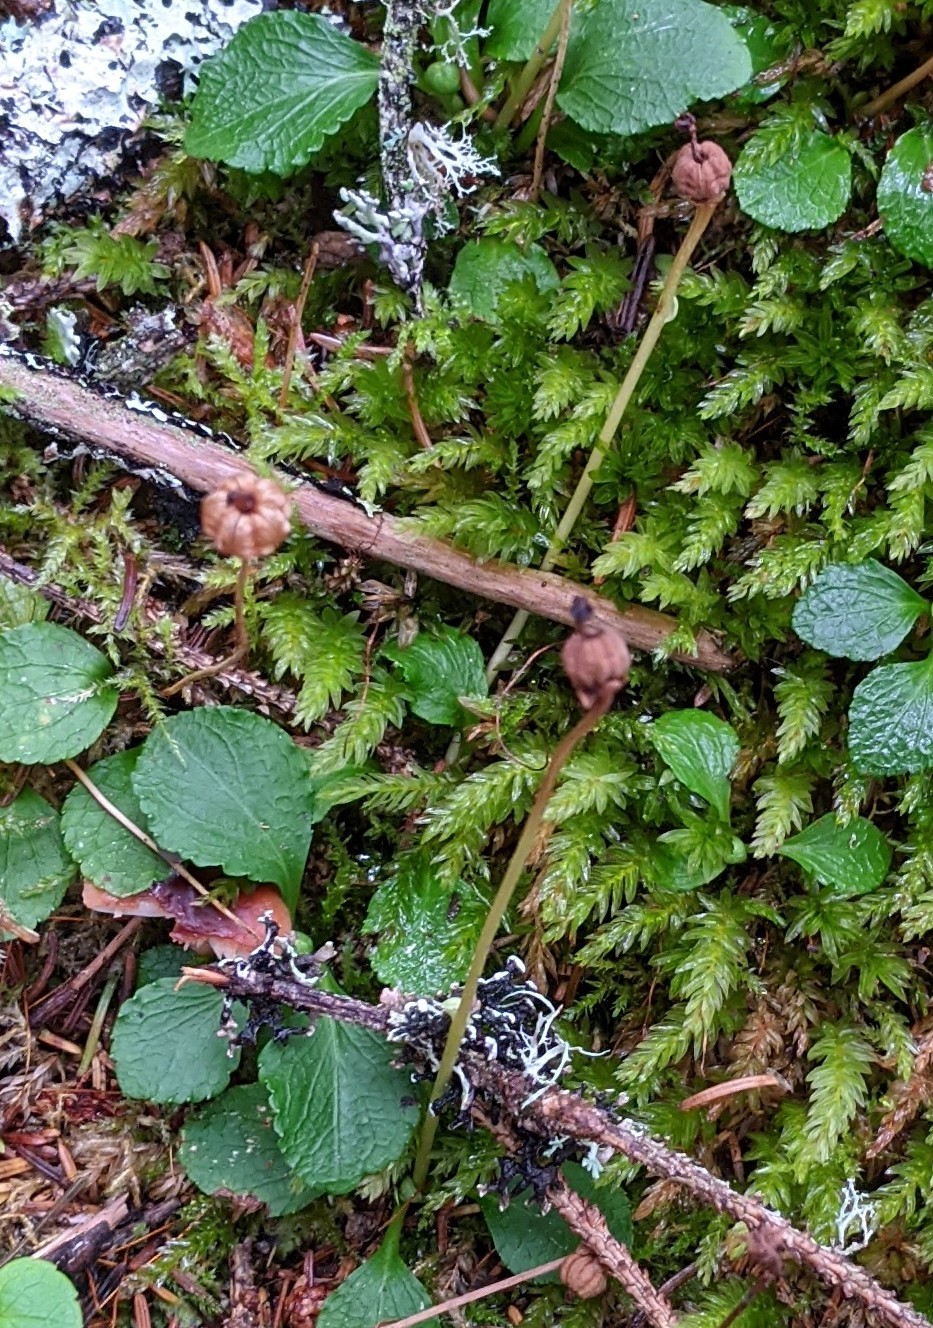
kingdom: Plantae
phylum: Tracheophyta
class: Magnoliopsida
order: Ericales
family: Ericaceae
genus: Moneses
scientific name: Moneses uniflora
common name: One-flowered wintergreen
